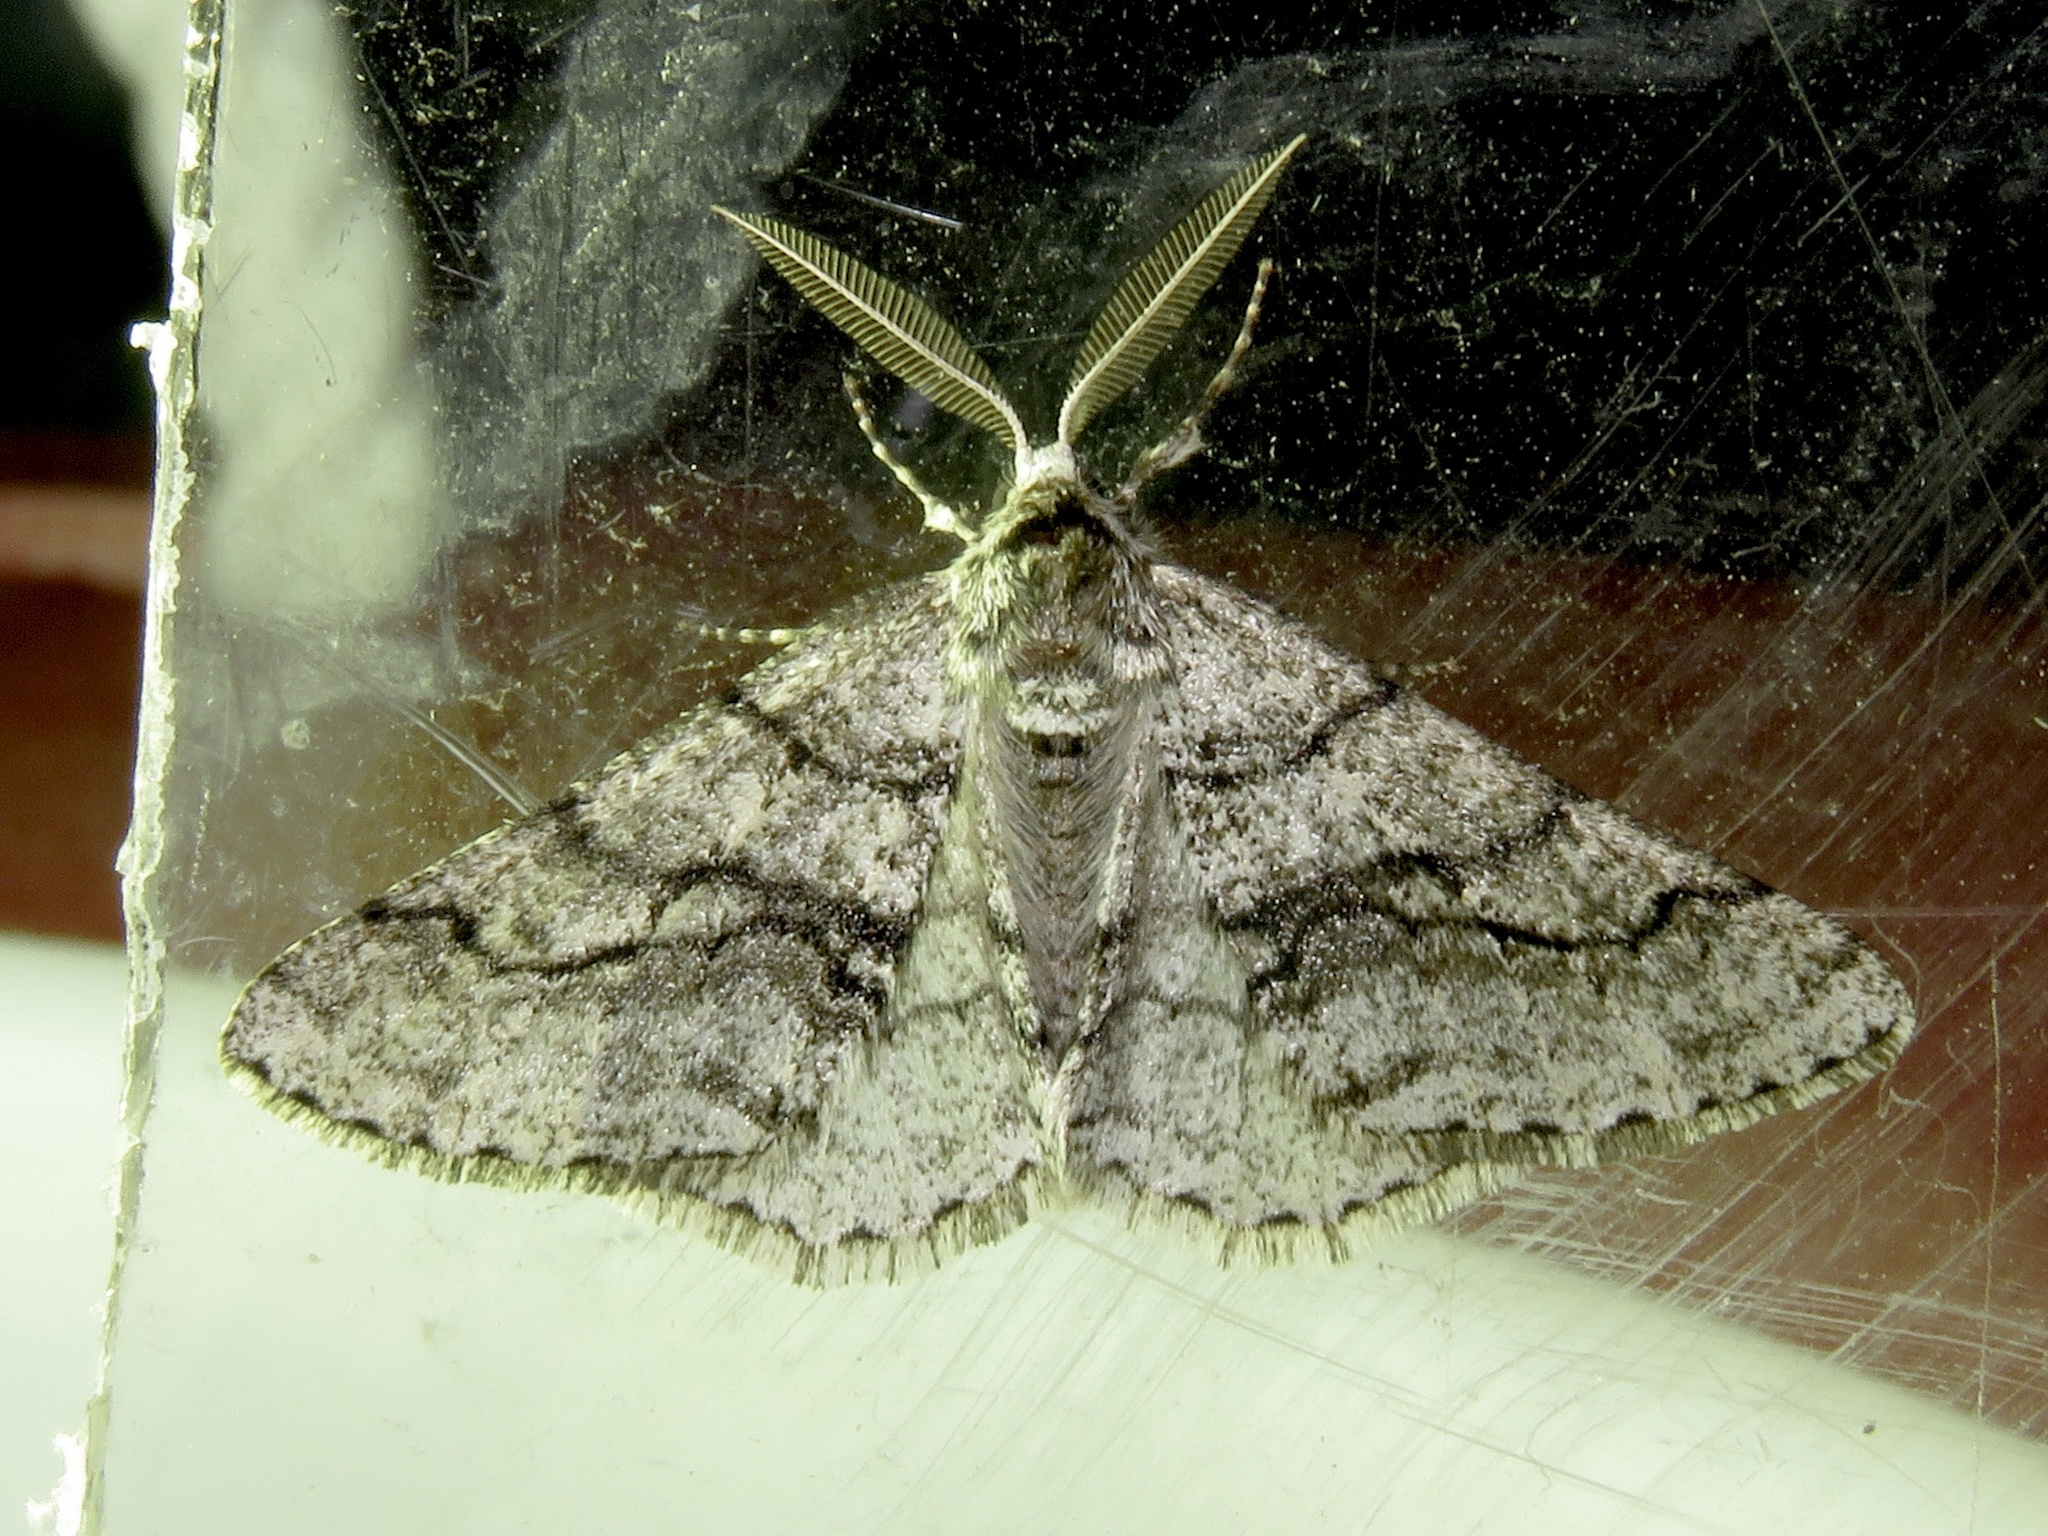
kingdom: Animalia
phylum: Arthropoda
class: Insecta
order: Lepidoptera
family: Geometridae
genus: Phigalia
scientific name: Phigalia titea
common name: Spiny looper
